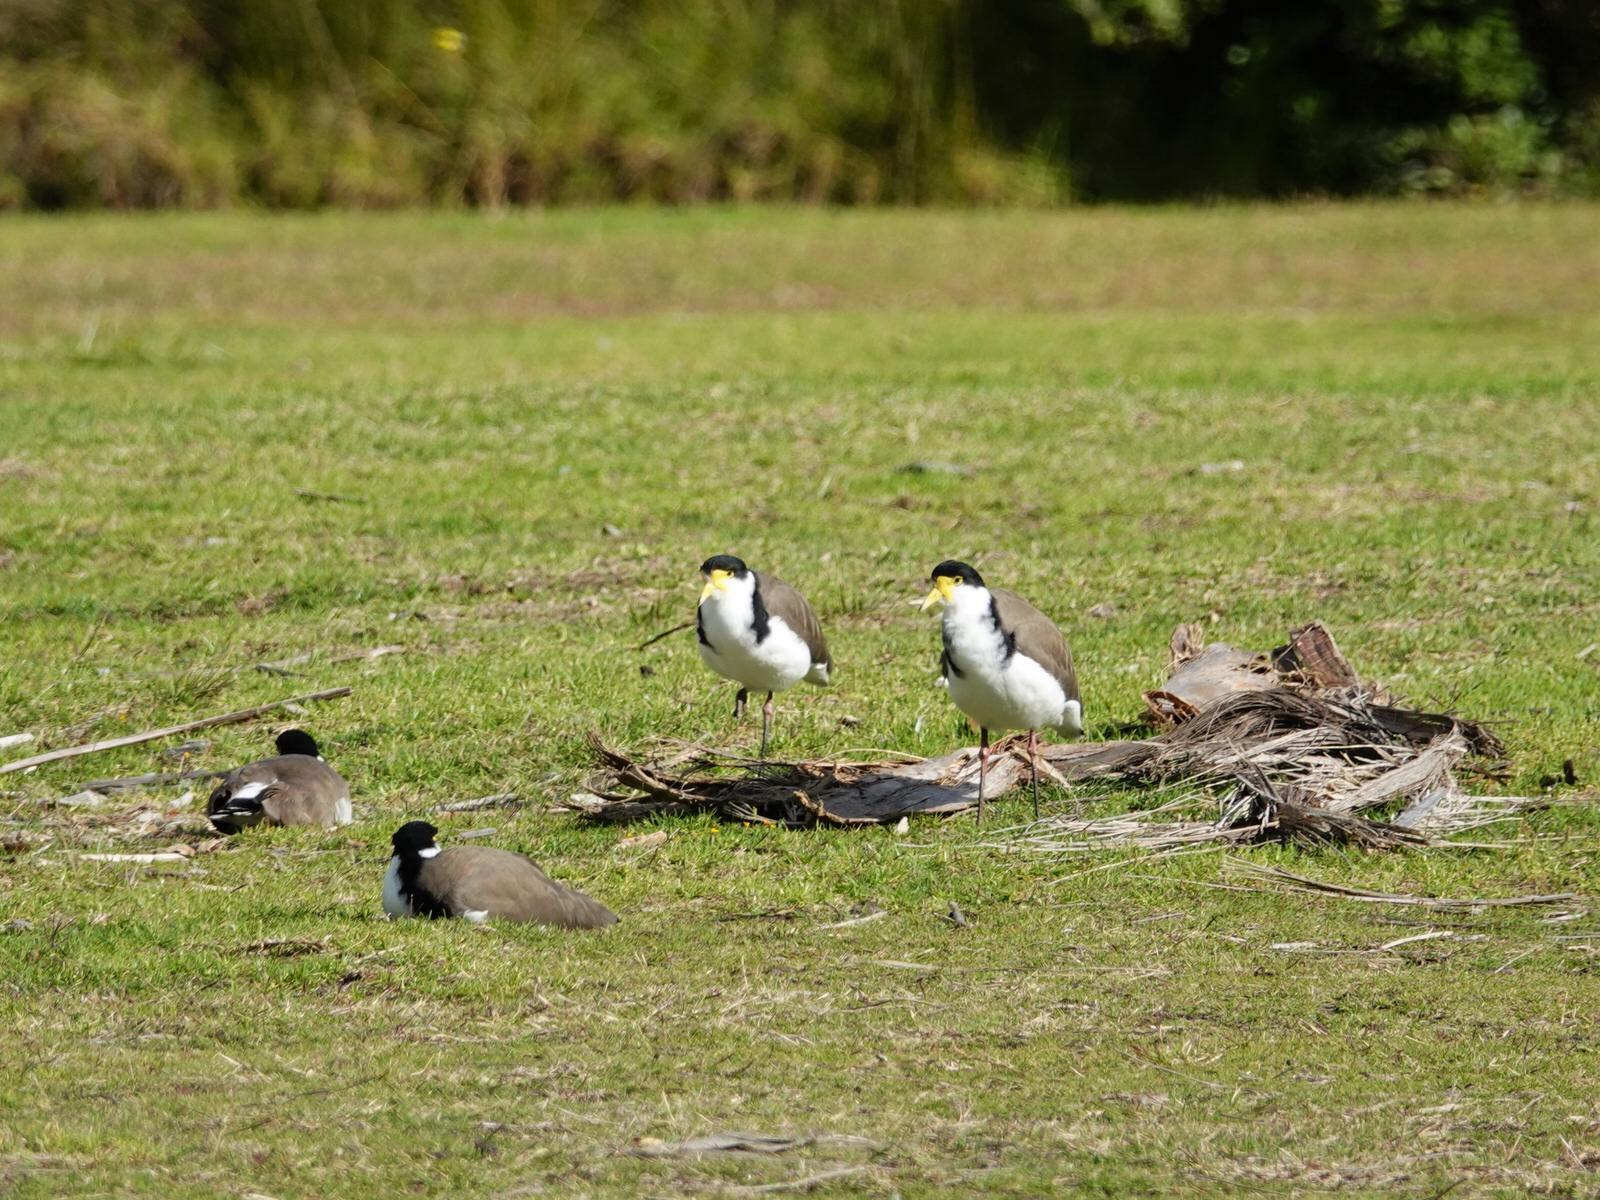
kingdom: Animalia
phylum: Chordata
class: Aves
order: Charadriiformes
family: Charadriidae
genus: Vanellus
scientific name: Vanellus miles
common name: Masked lapwing
